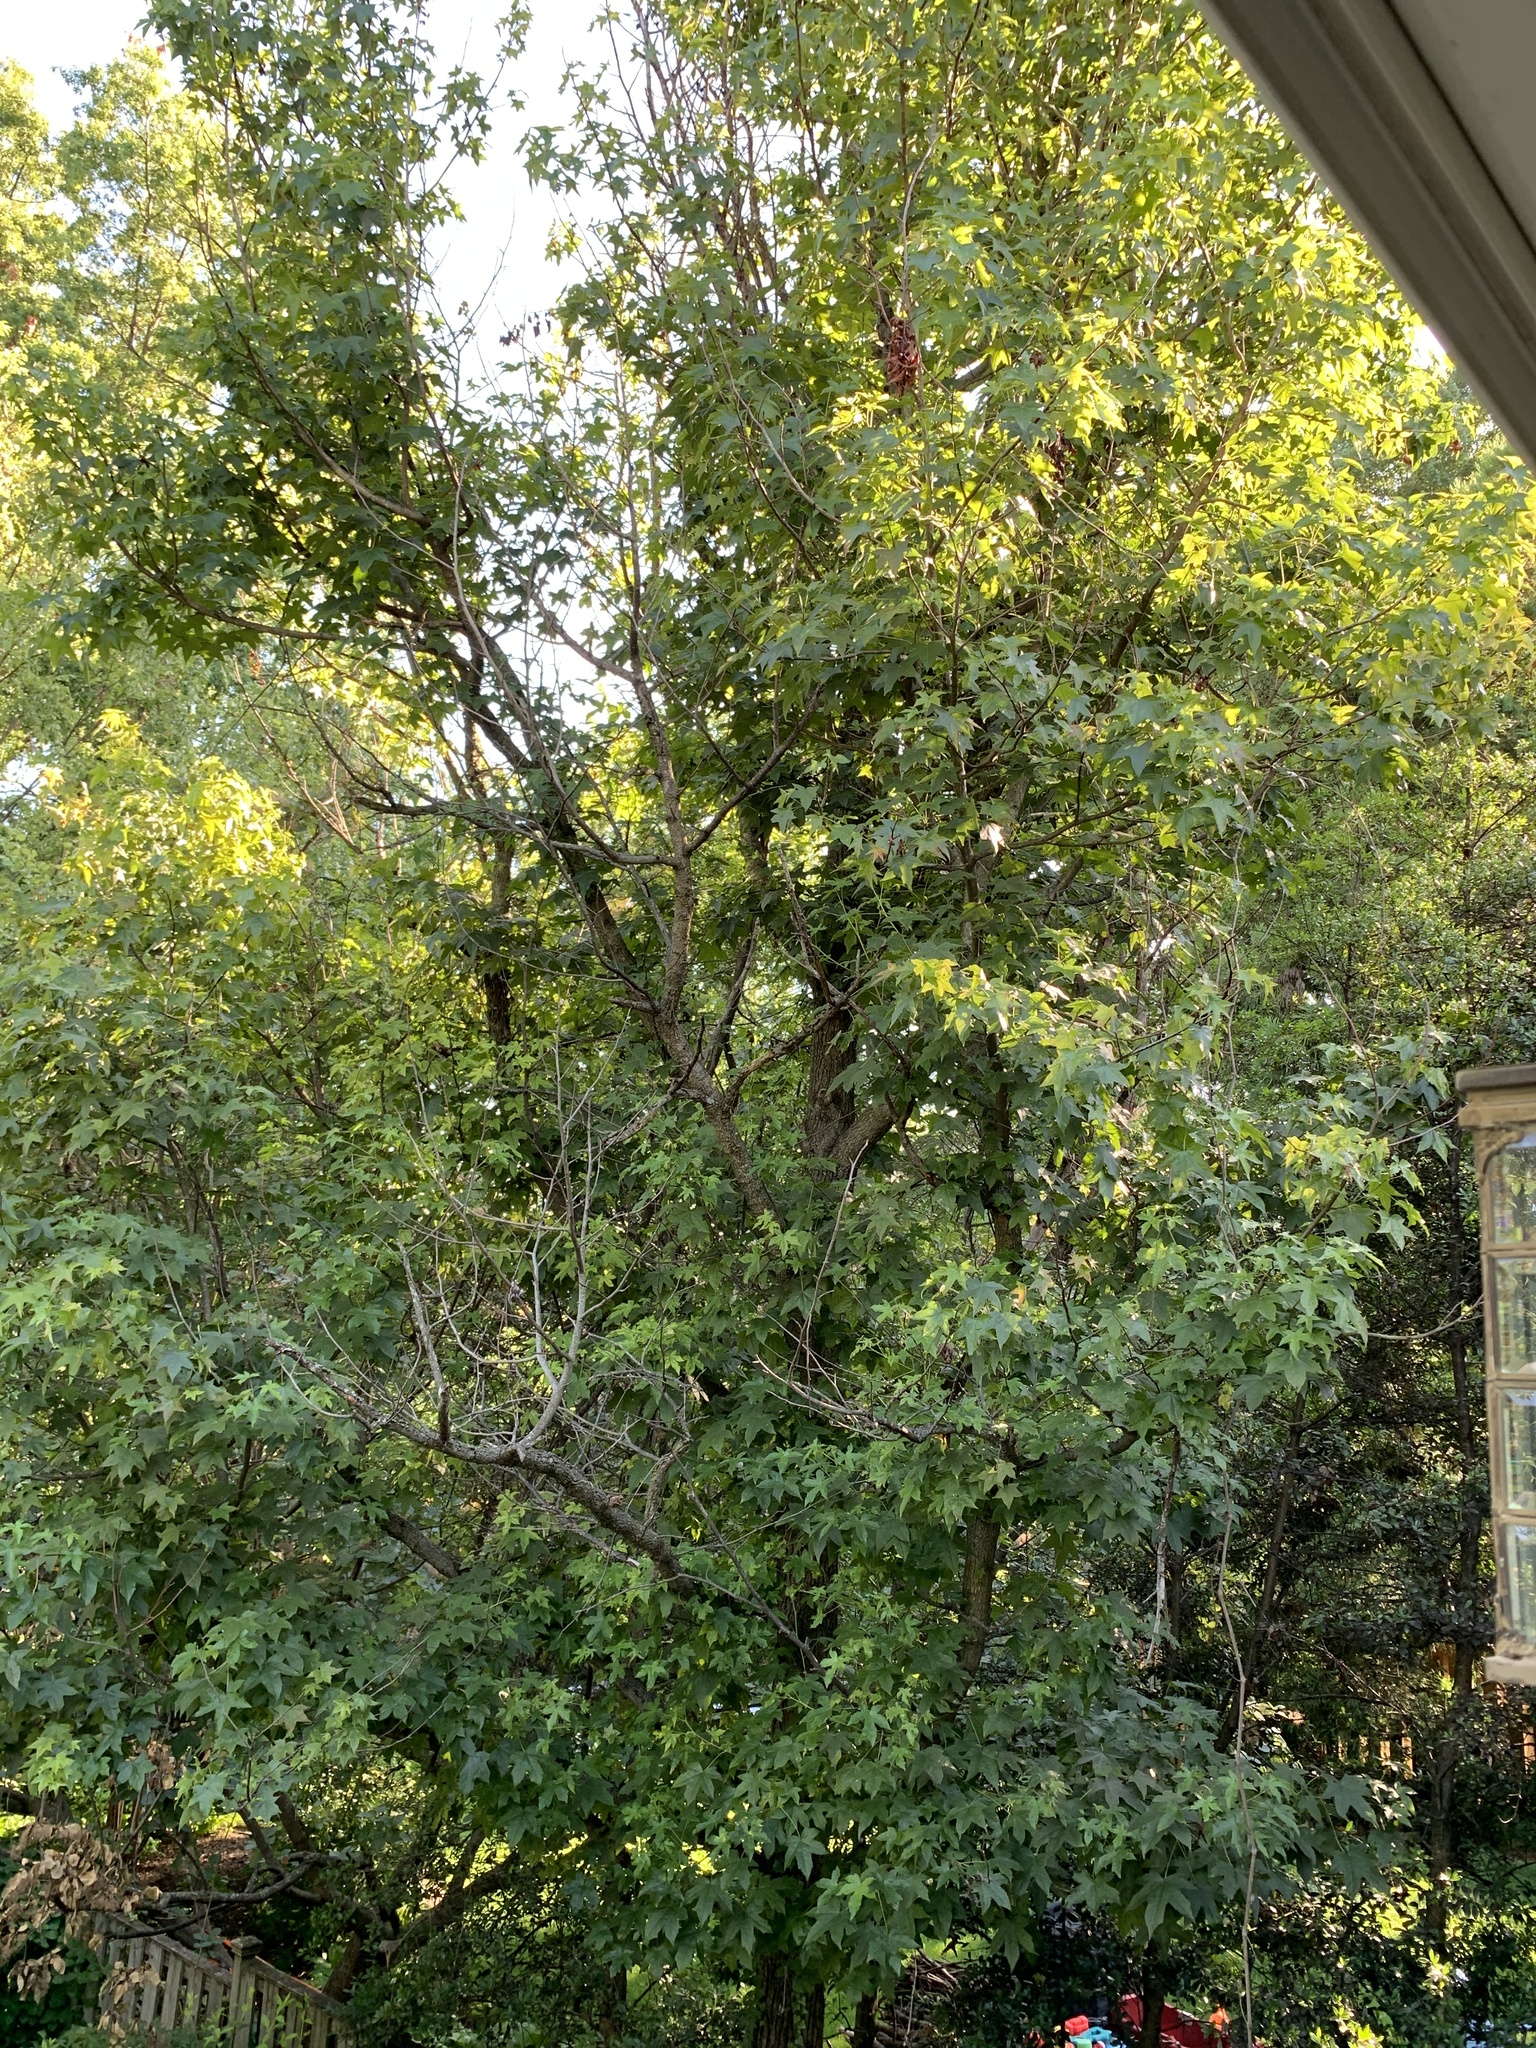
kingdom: Plantae
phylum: Tracheophyta
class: Magnoliopsida
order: Saxifragales
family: Altingiaceae
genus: Liquidambar
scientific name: Liquidambar styraciflua
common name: Sweet gum
